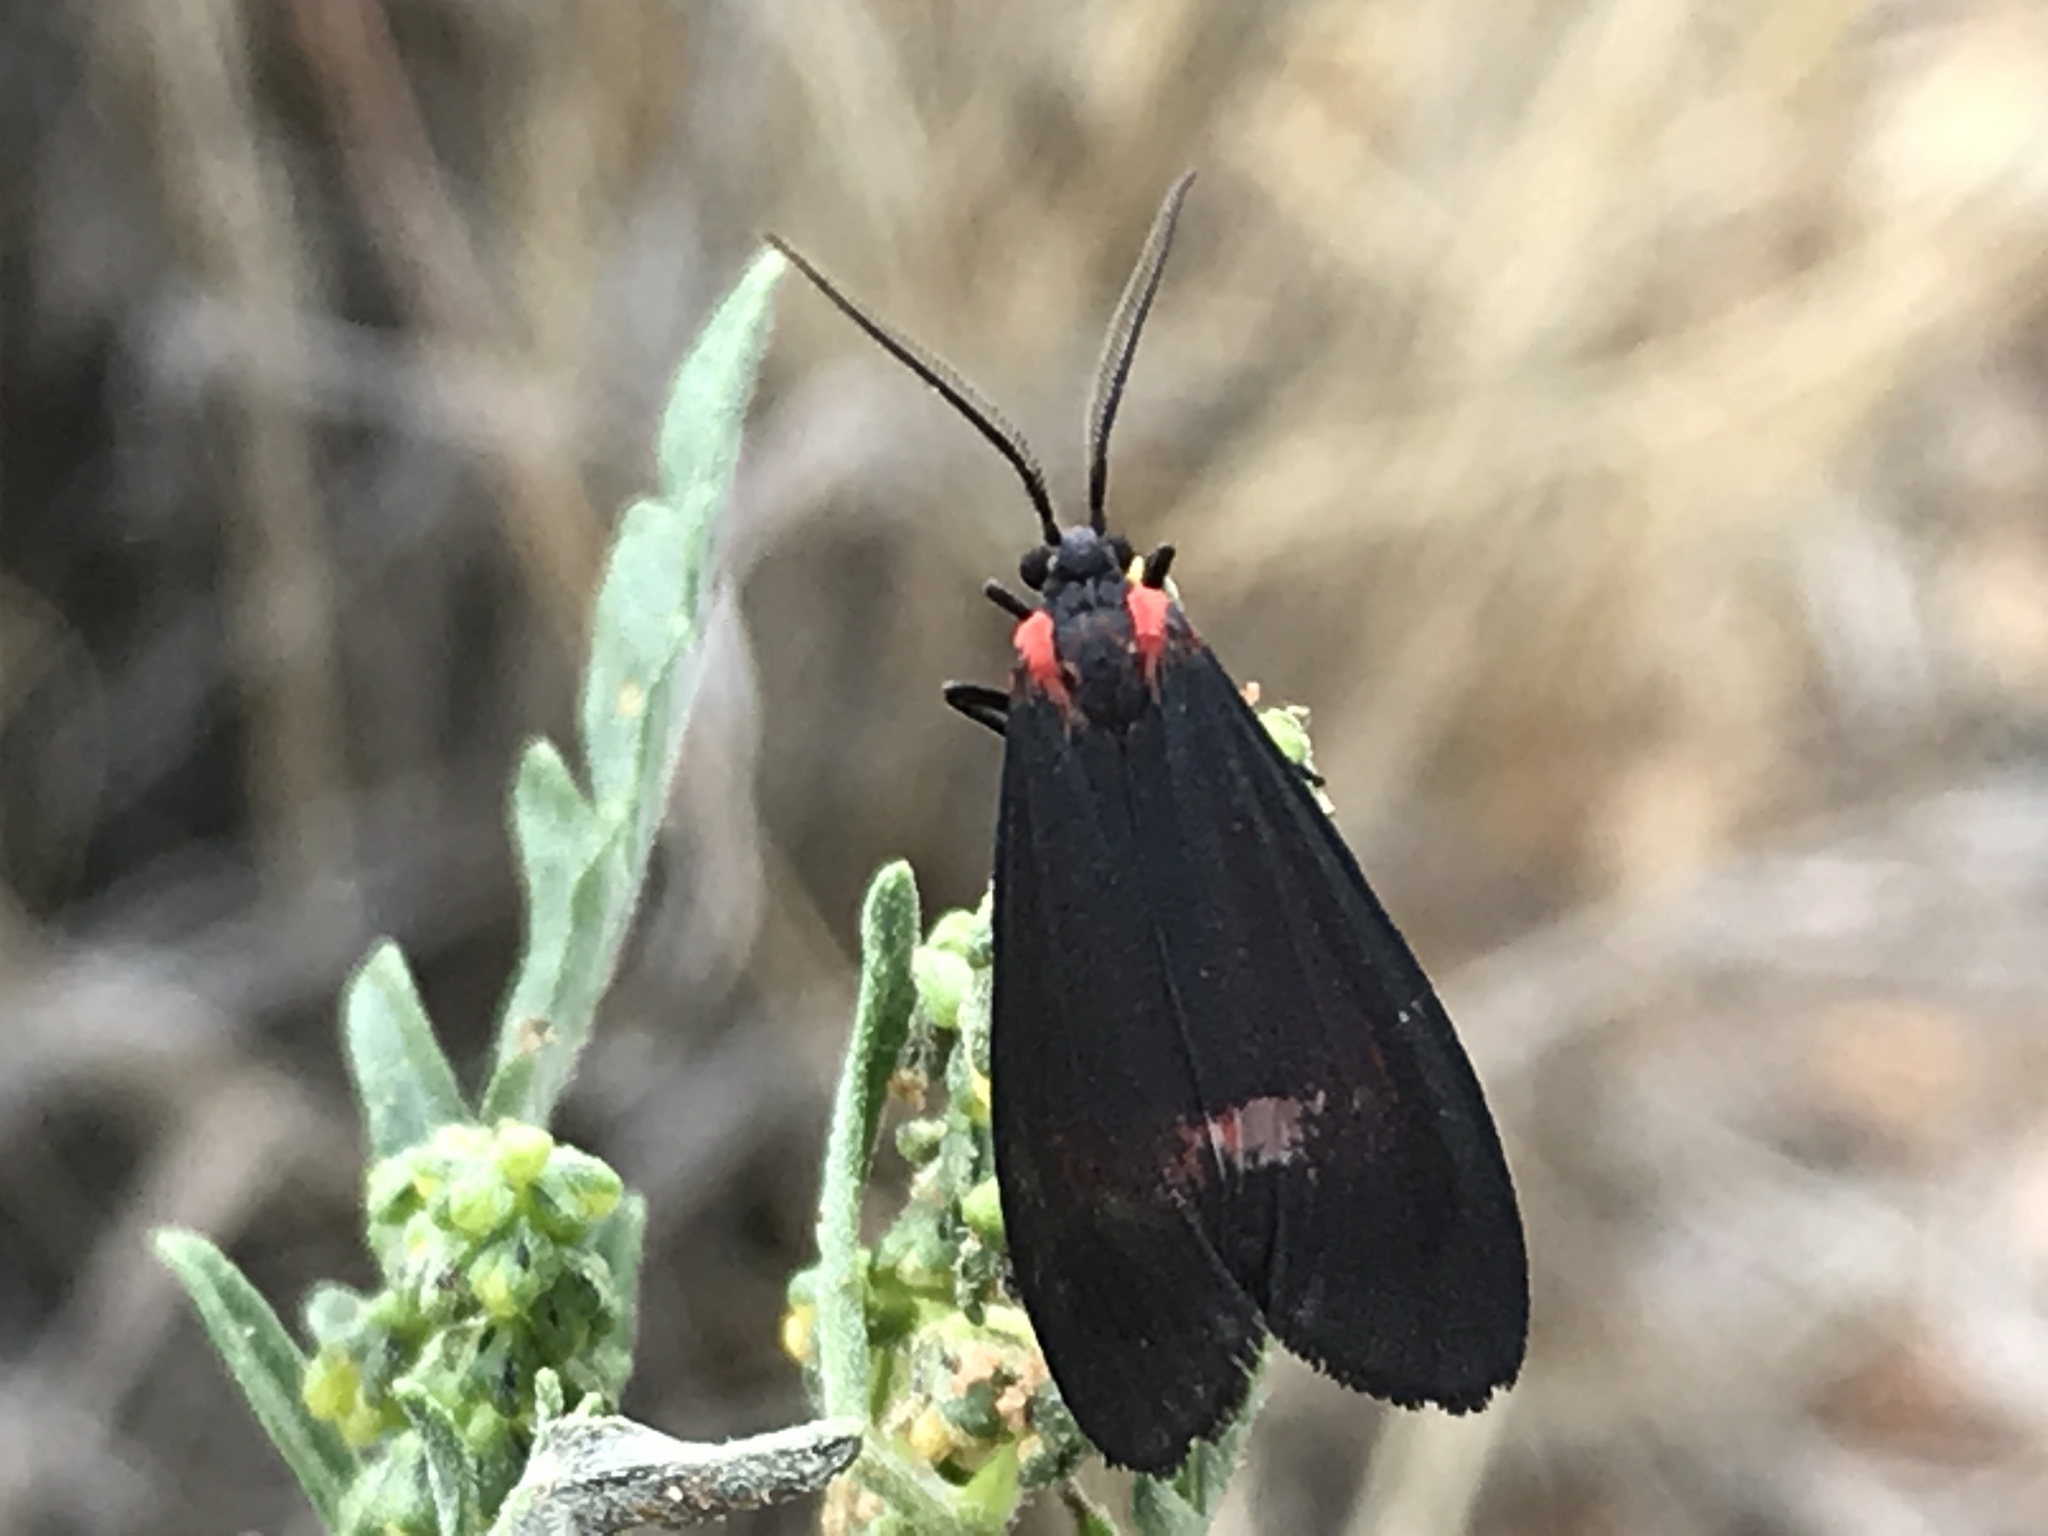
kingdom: Animalia
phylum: Arthropoda
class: Insecta
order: Lepidoptera
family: Erebidae
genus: Lycomorpha
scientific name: Lycomorpha splendens
